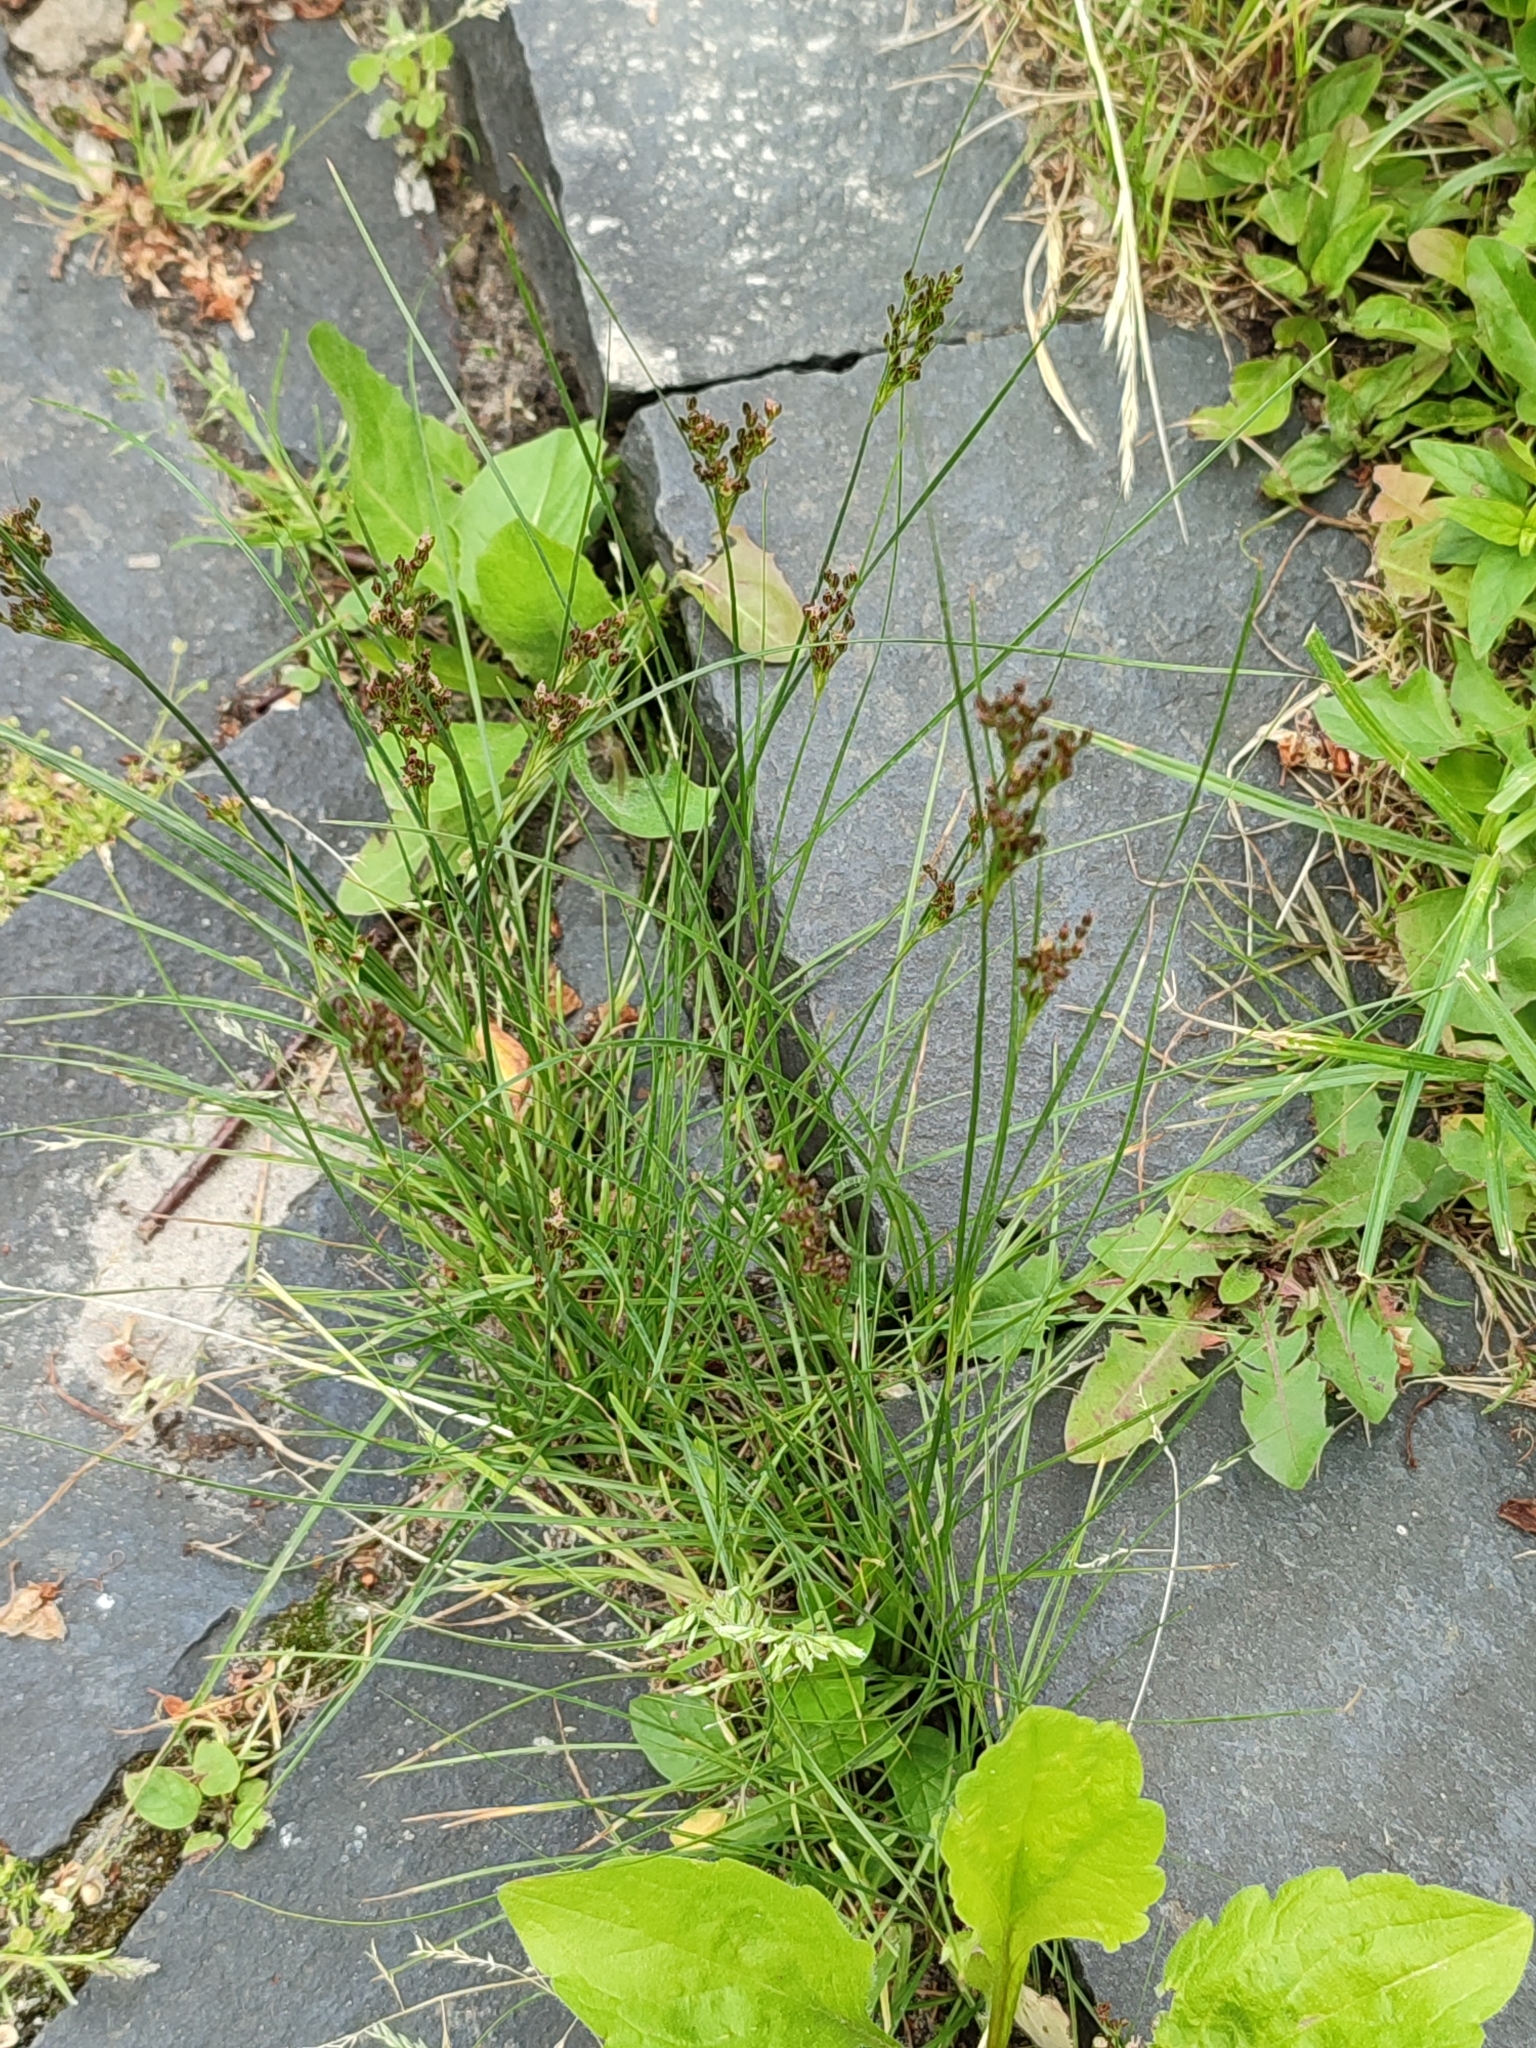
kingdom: Plantae
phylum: Tracheophyta
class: Liliopsida
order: Poales
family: Juncaceae
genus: Juncus
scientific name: Juncus compressus
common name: Round-fruited rush
